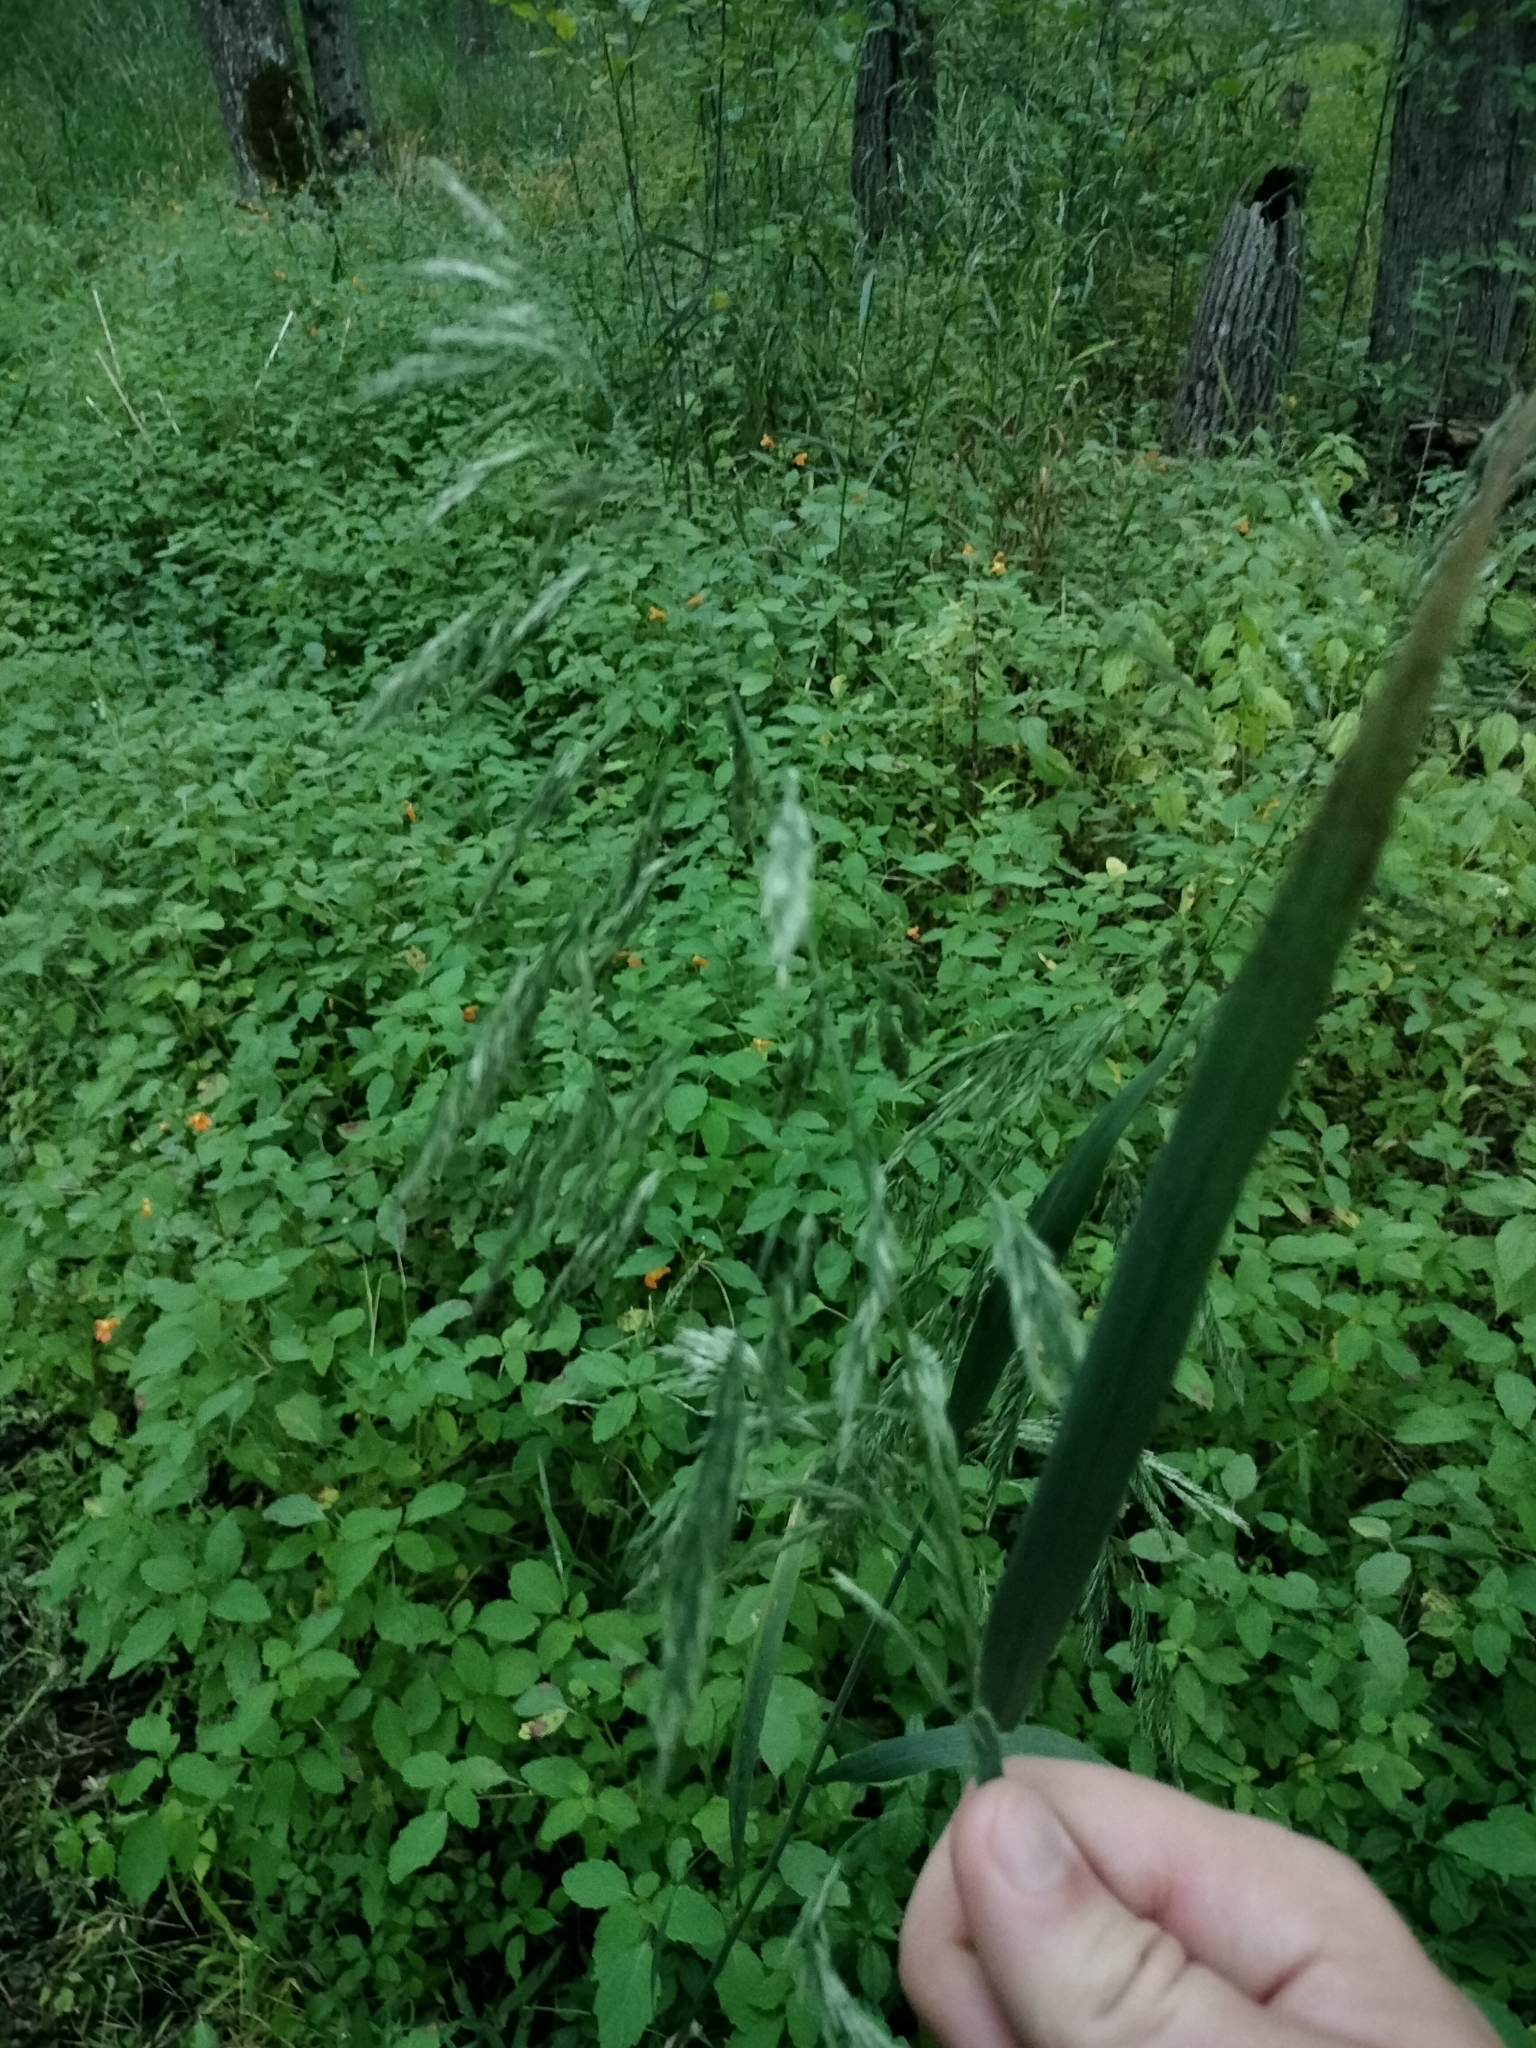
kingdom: Plantae
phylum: Tracheophyta
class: Liliopsida
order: Poales
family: Poaceae
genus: Cinna
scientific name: Cinna arundinacea
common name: Stout woodreed
